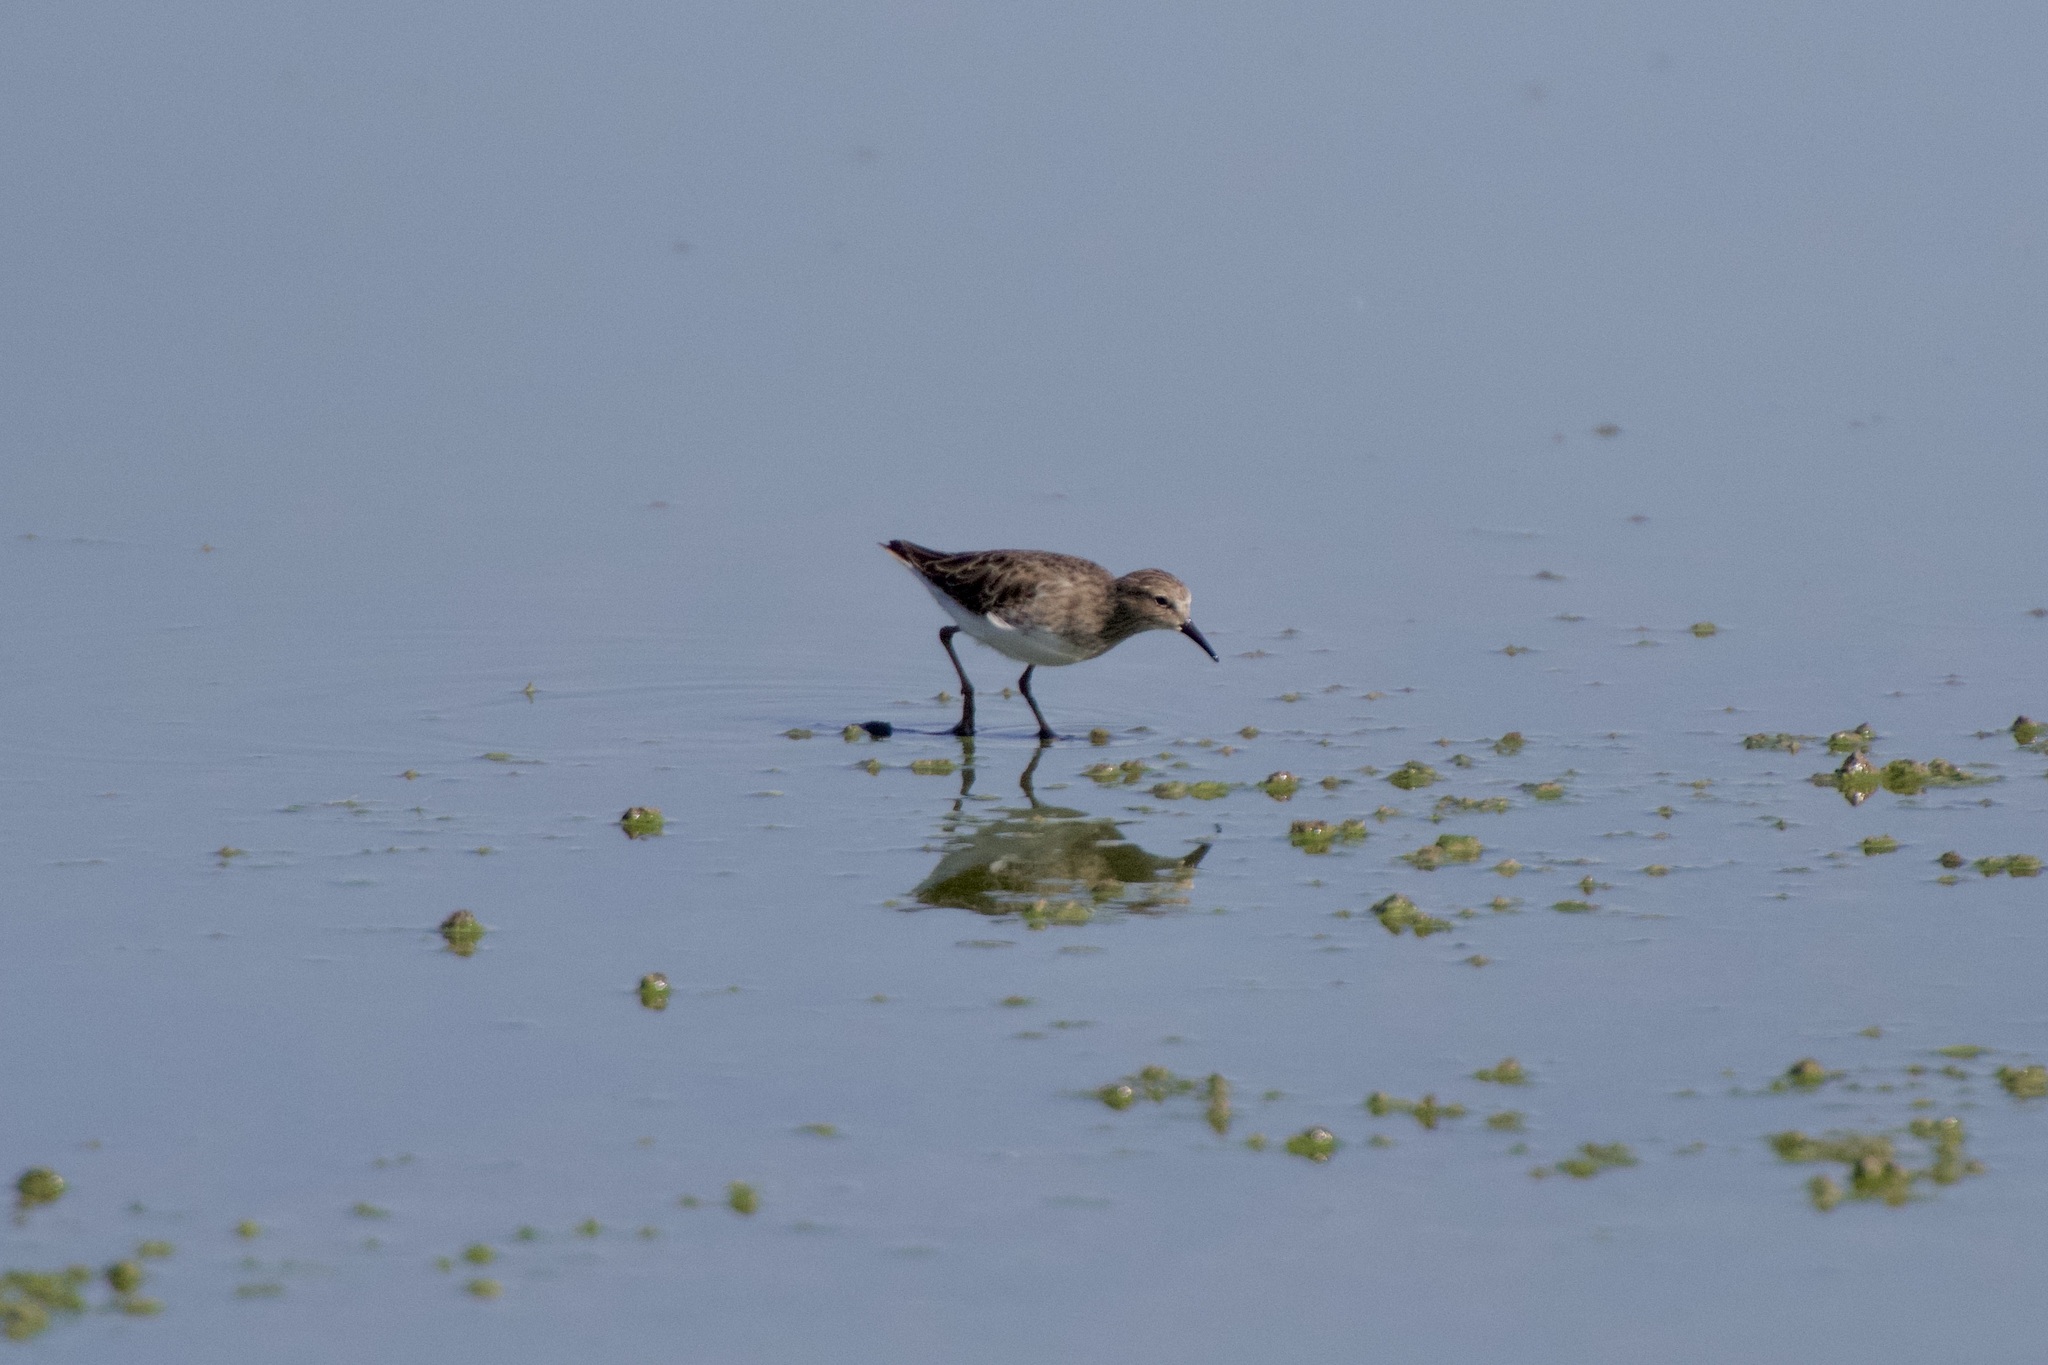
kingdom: Animalia
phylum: Chordata
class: Aves
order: Charadriiformes
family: Scolopacidae
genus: Calidris
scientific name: Calidris minutilla
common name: Least sandpiper
